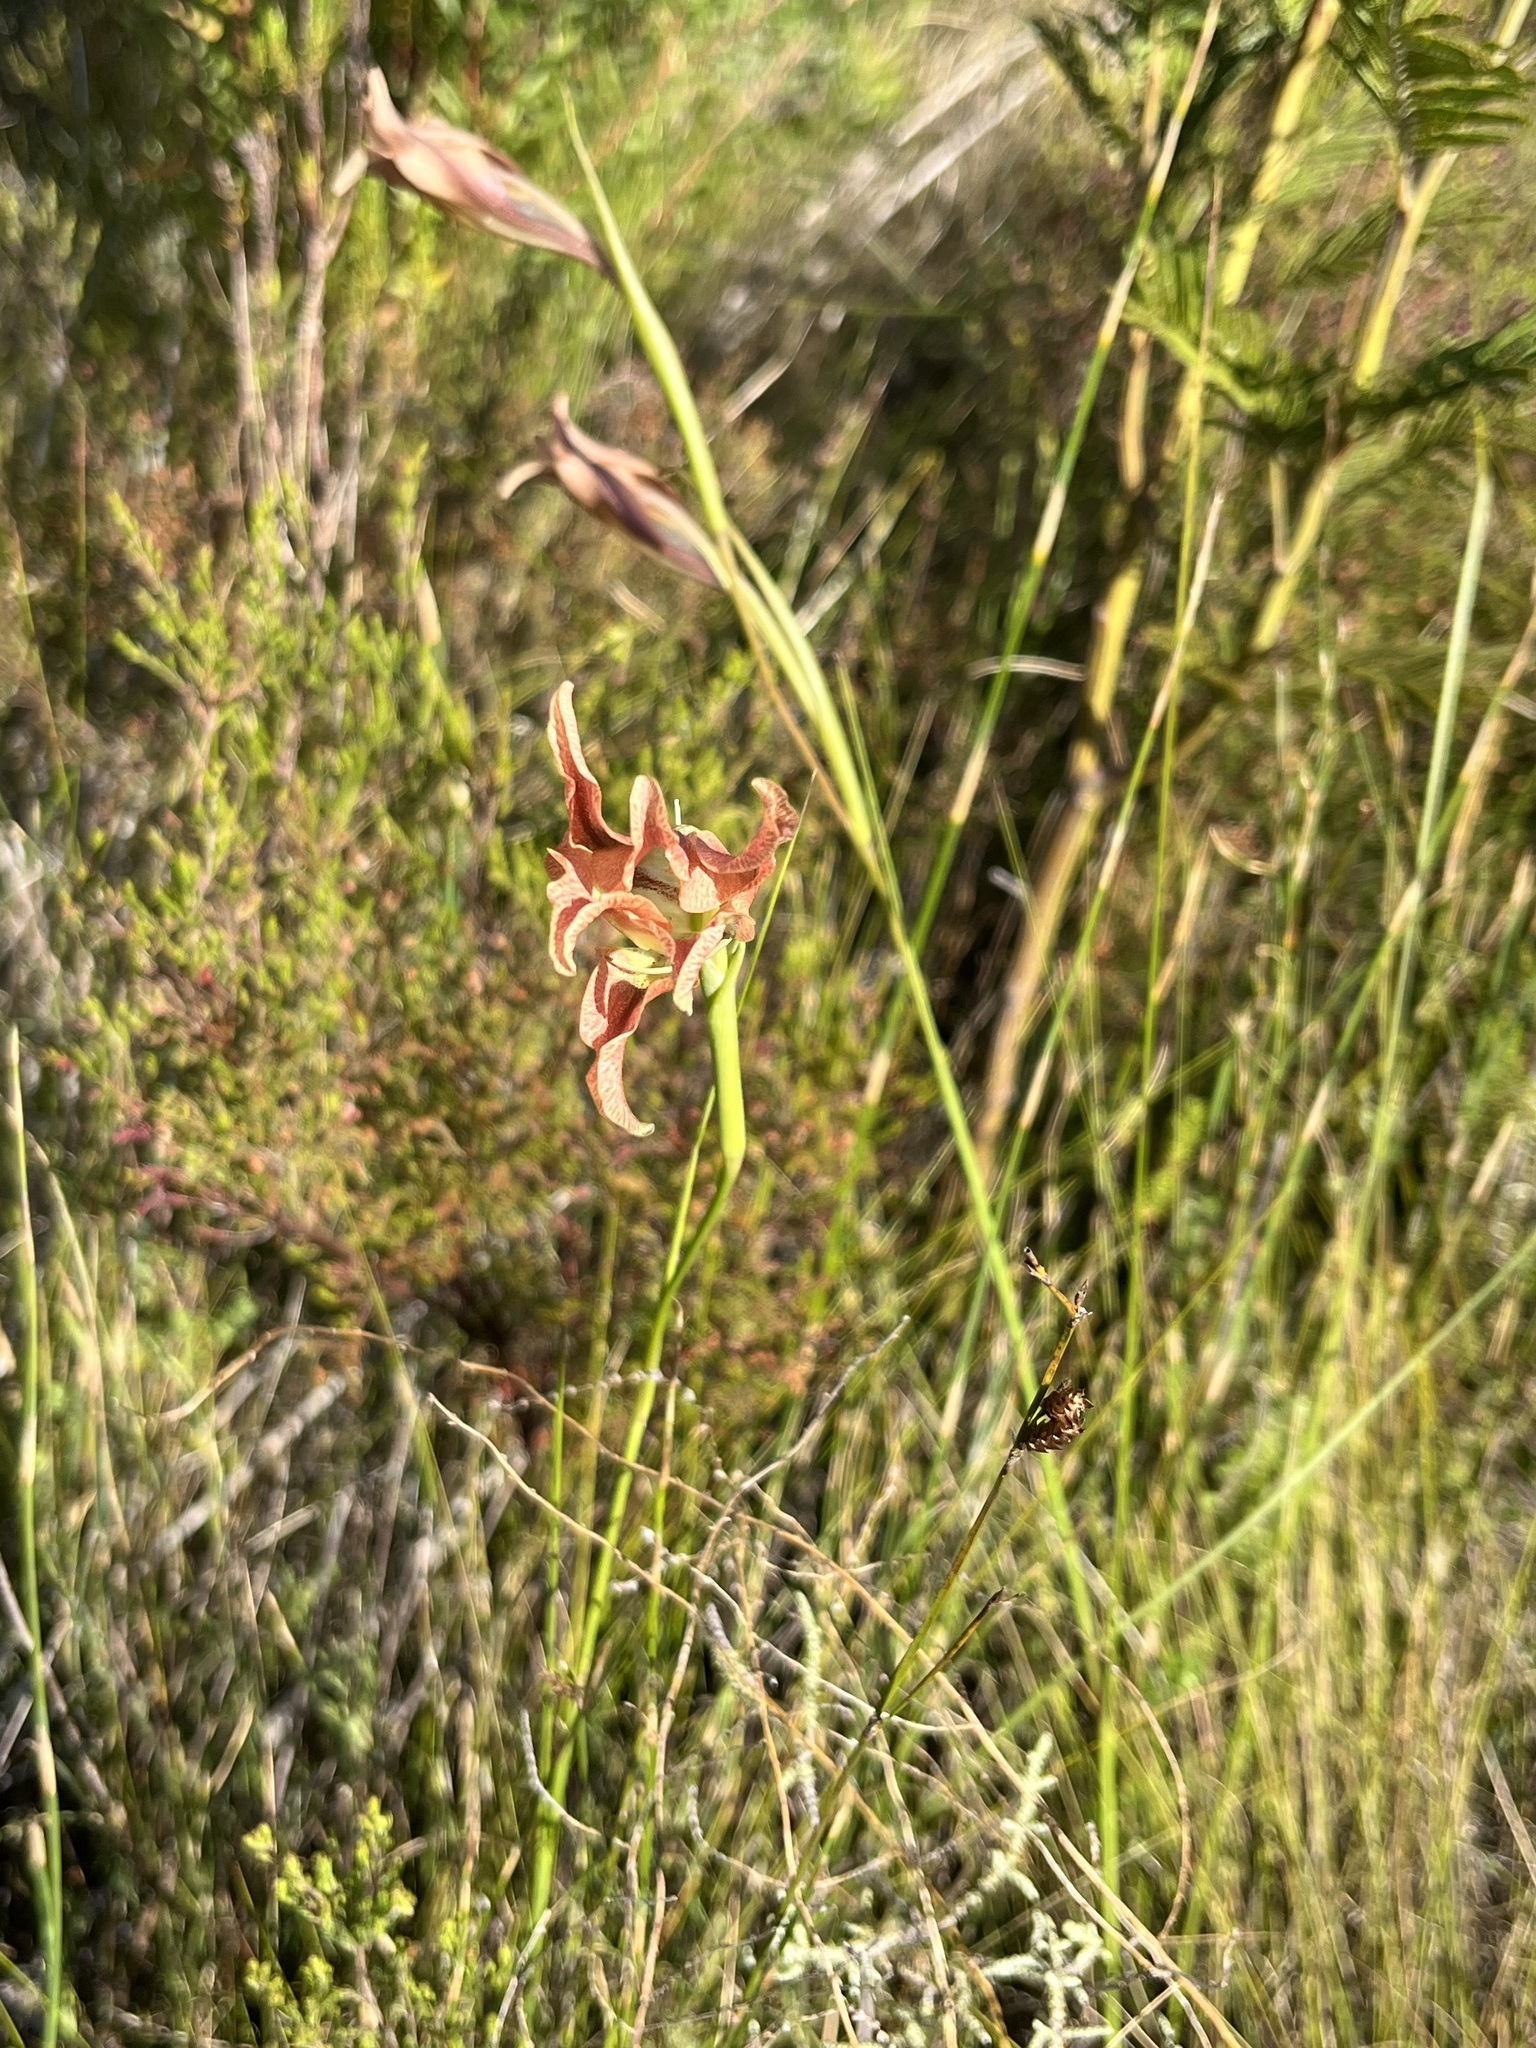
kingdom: Plantae
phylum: Tracheophyta
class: Liliopsida
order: Asparagales
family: Iridaceae
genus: Gladiolus
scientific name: Gladiolus liliaceus
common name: Large brown afrikaner
